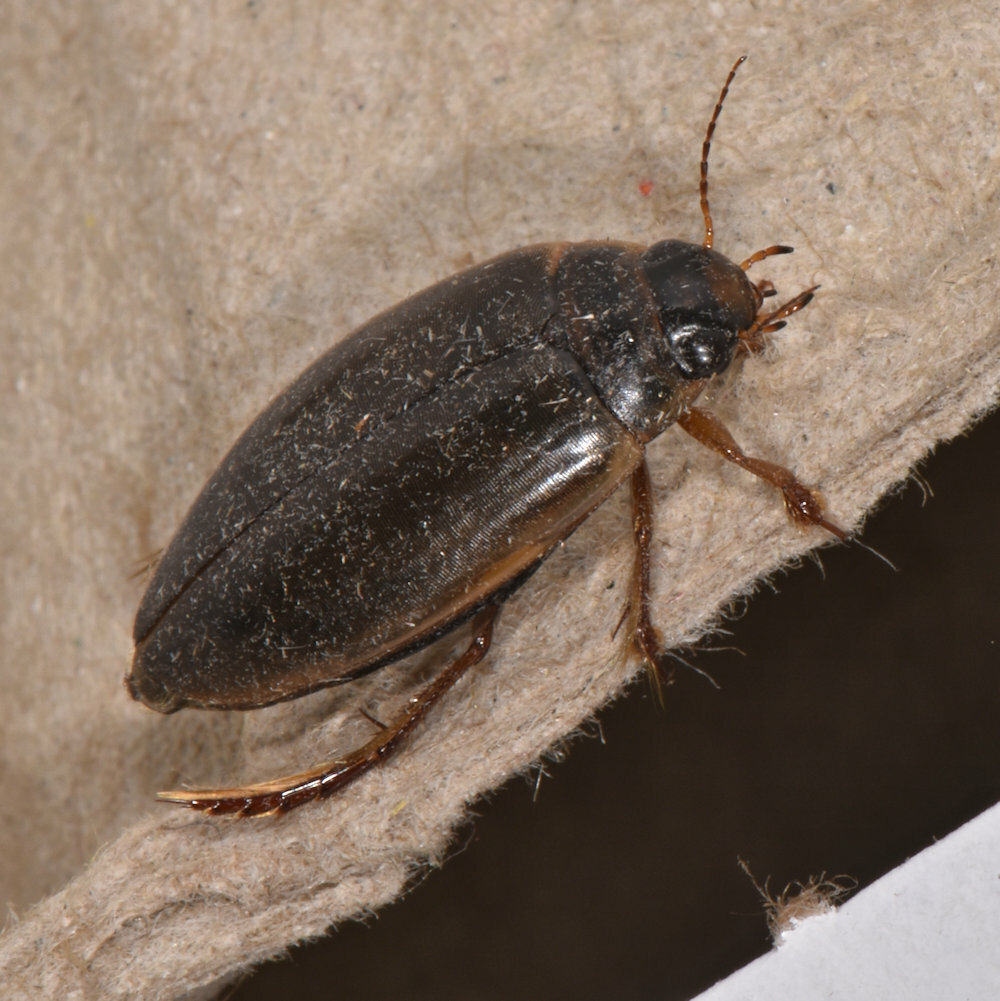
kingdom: Animalia
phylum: Arthropoda
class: Insecta
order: Coleoptera
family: Dytiscidae
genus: Colymbetes
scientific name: Colymbetes sculptilis
